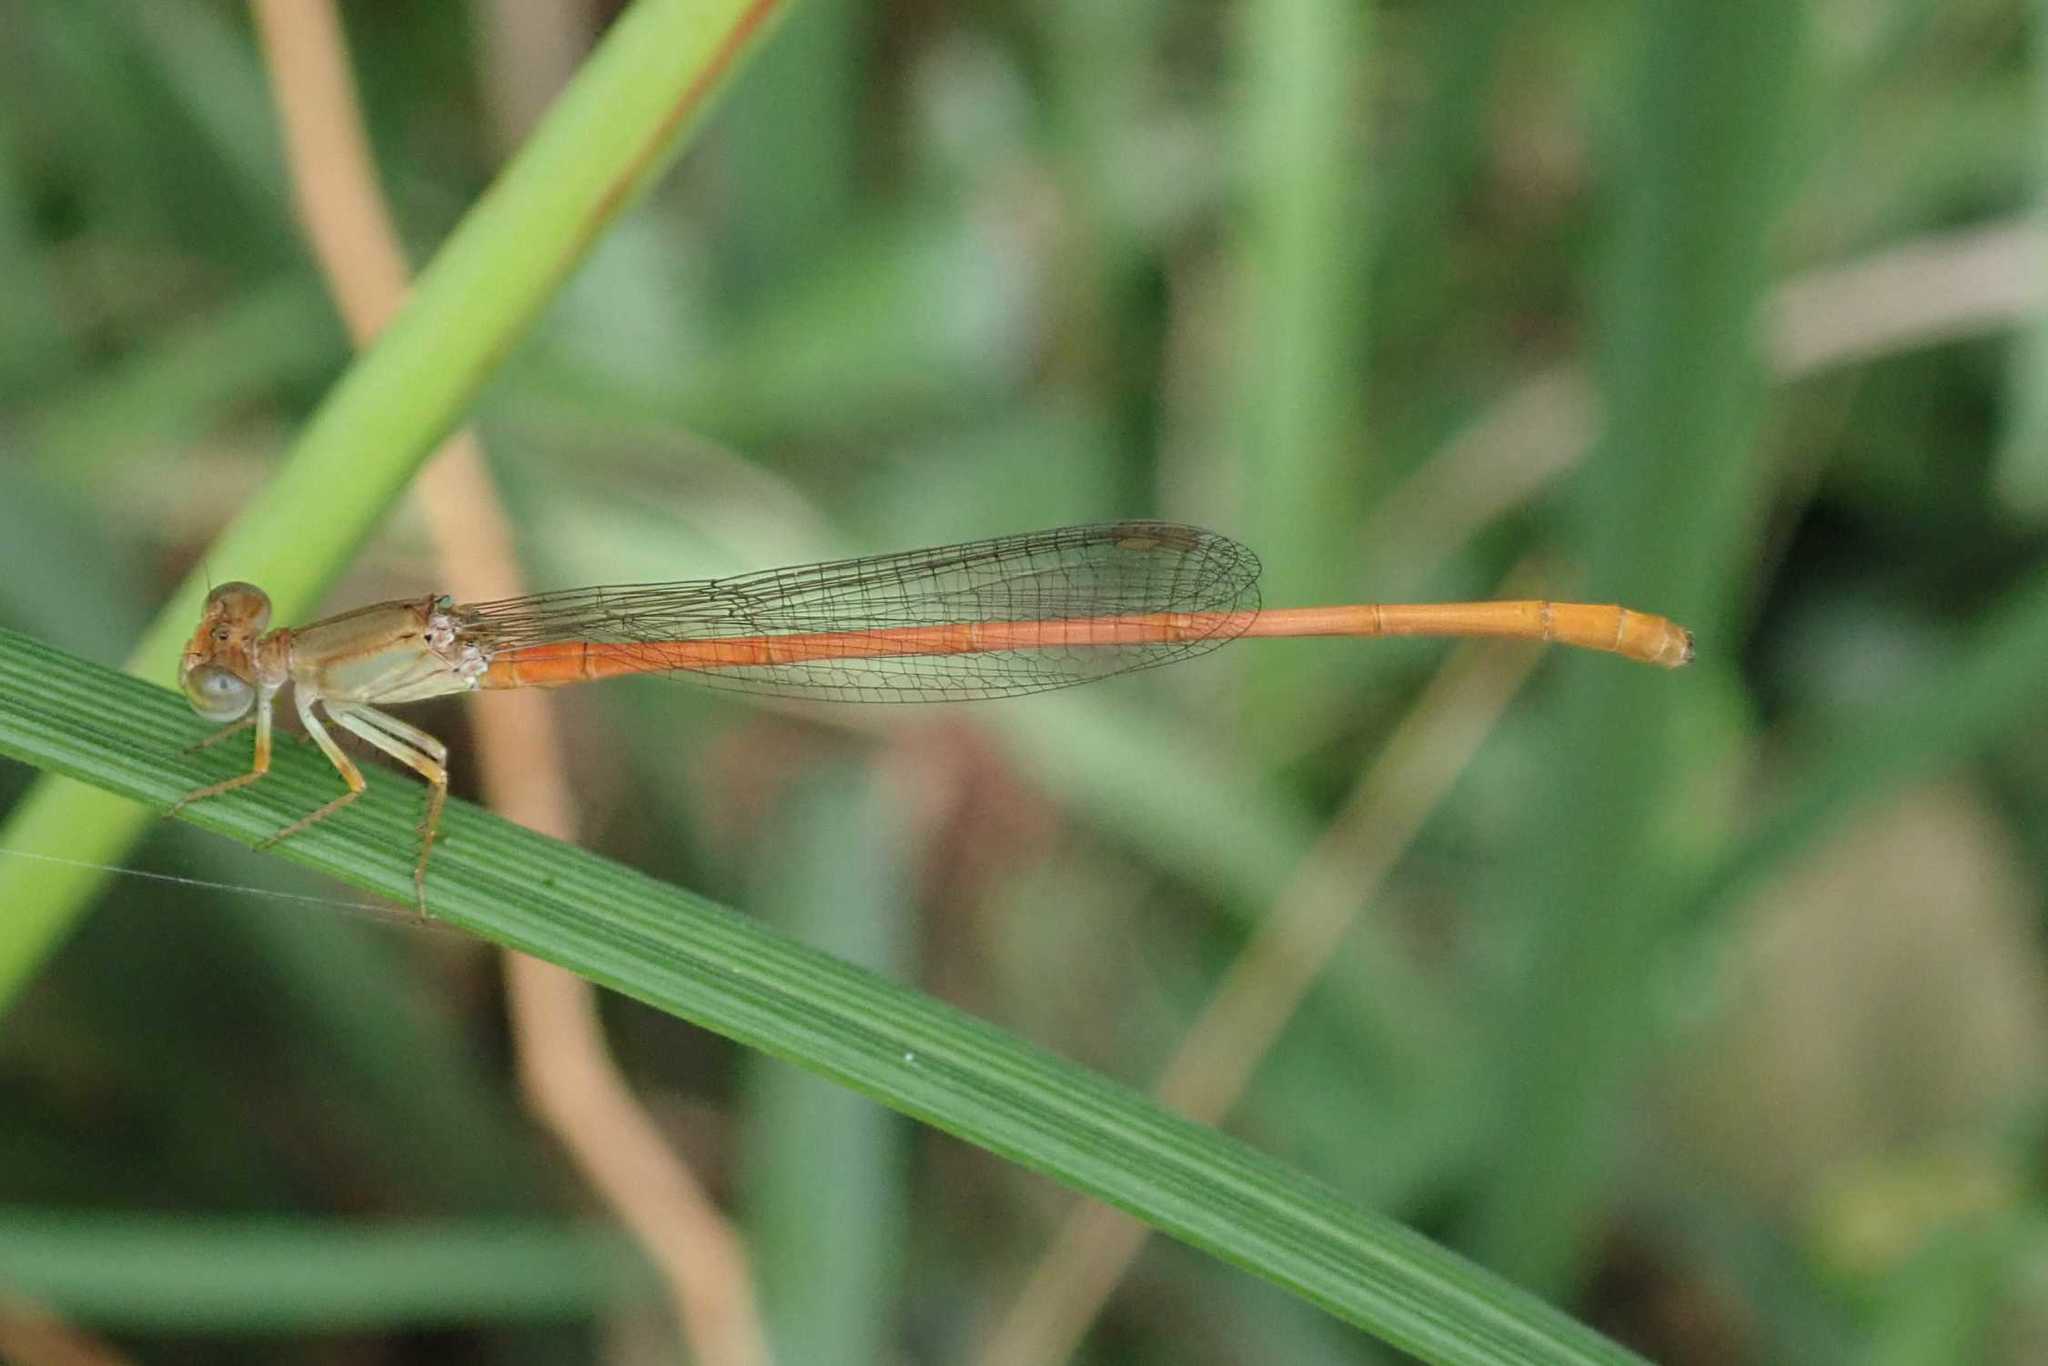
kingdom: Animalia
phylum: Arthropoda
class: Insecta
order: Odonata
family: Coenagrionidae
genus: Ceriagrion
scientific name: Ceriagrion glabrum
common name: Common pond damsel
